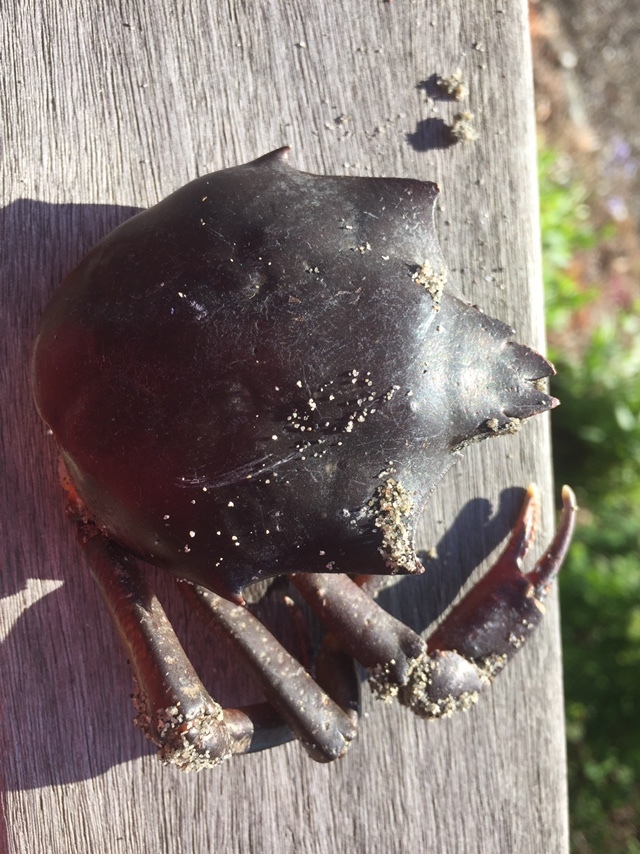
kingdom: Animalia
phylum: Arthropoda
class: Malacostraca
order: Decapoda
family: Epialtidae
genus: Pugettia
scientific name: Pugettia producta
